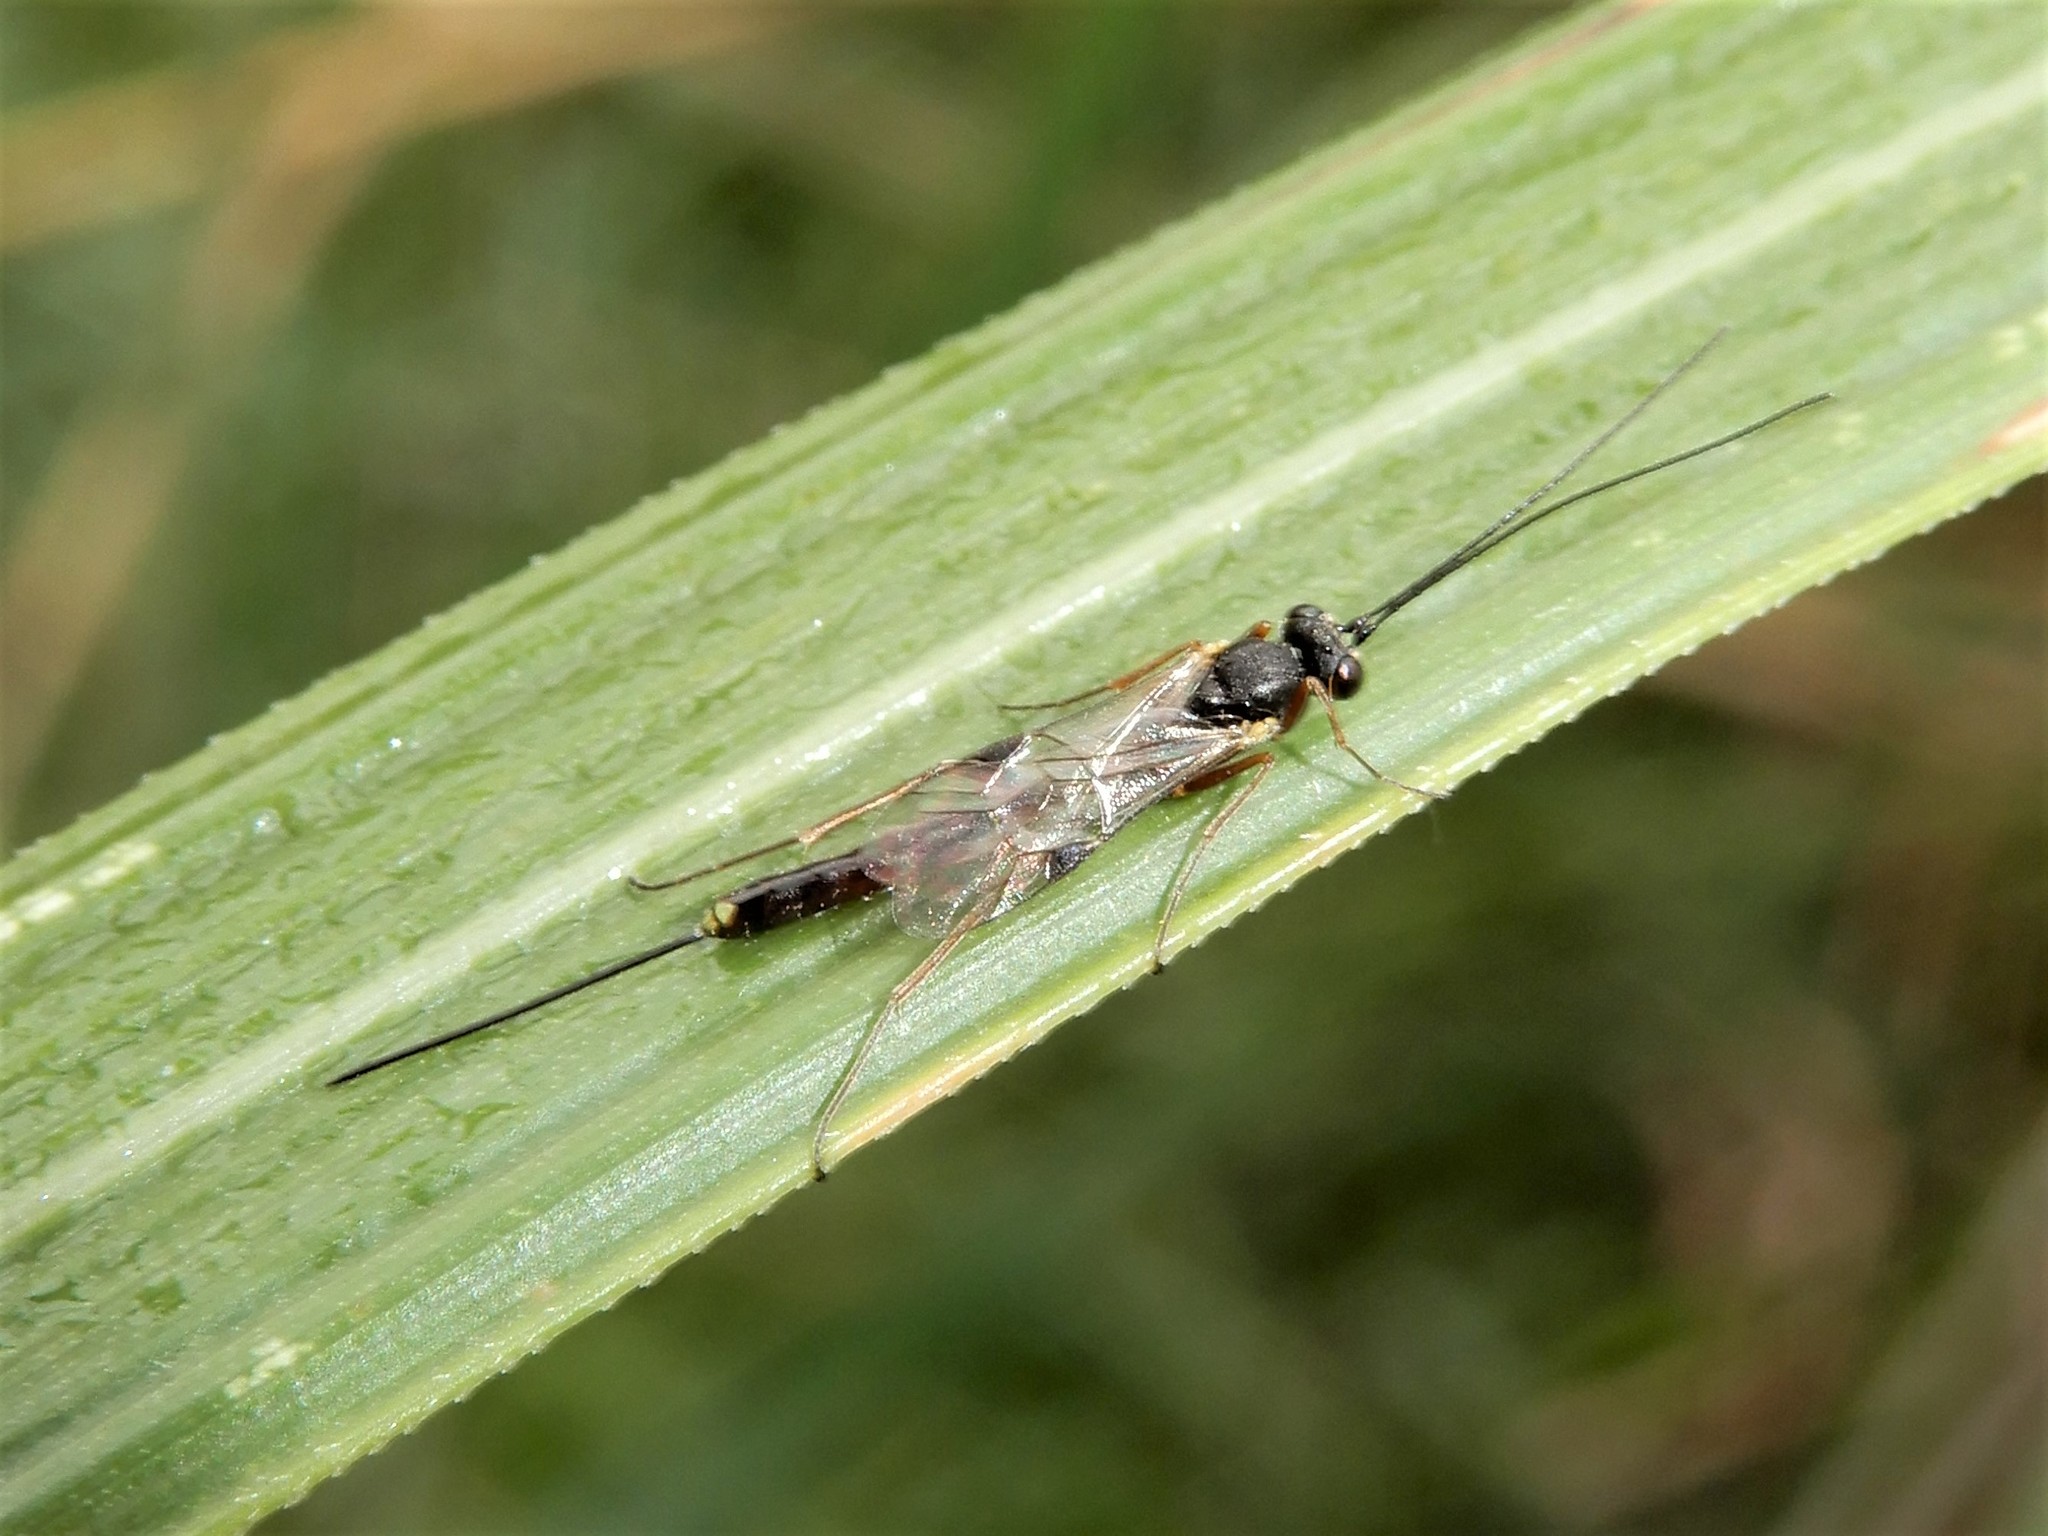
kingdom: Animalia
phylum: Arthropoda
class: Insecta
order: Hymenoptera
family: Ichneumonidae
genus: Trathala
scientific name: Trathala agnina
